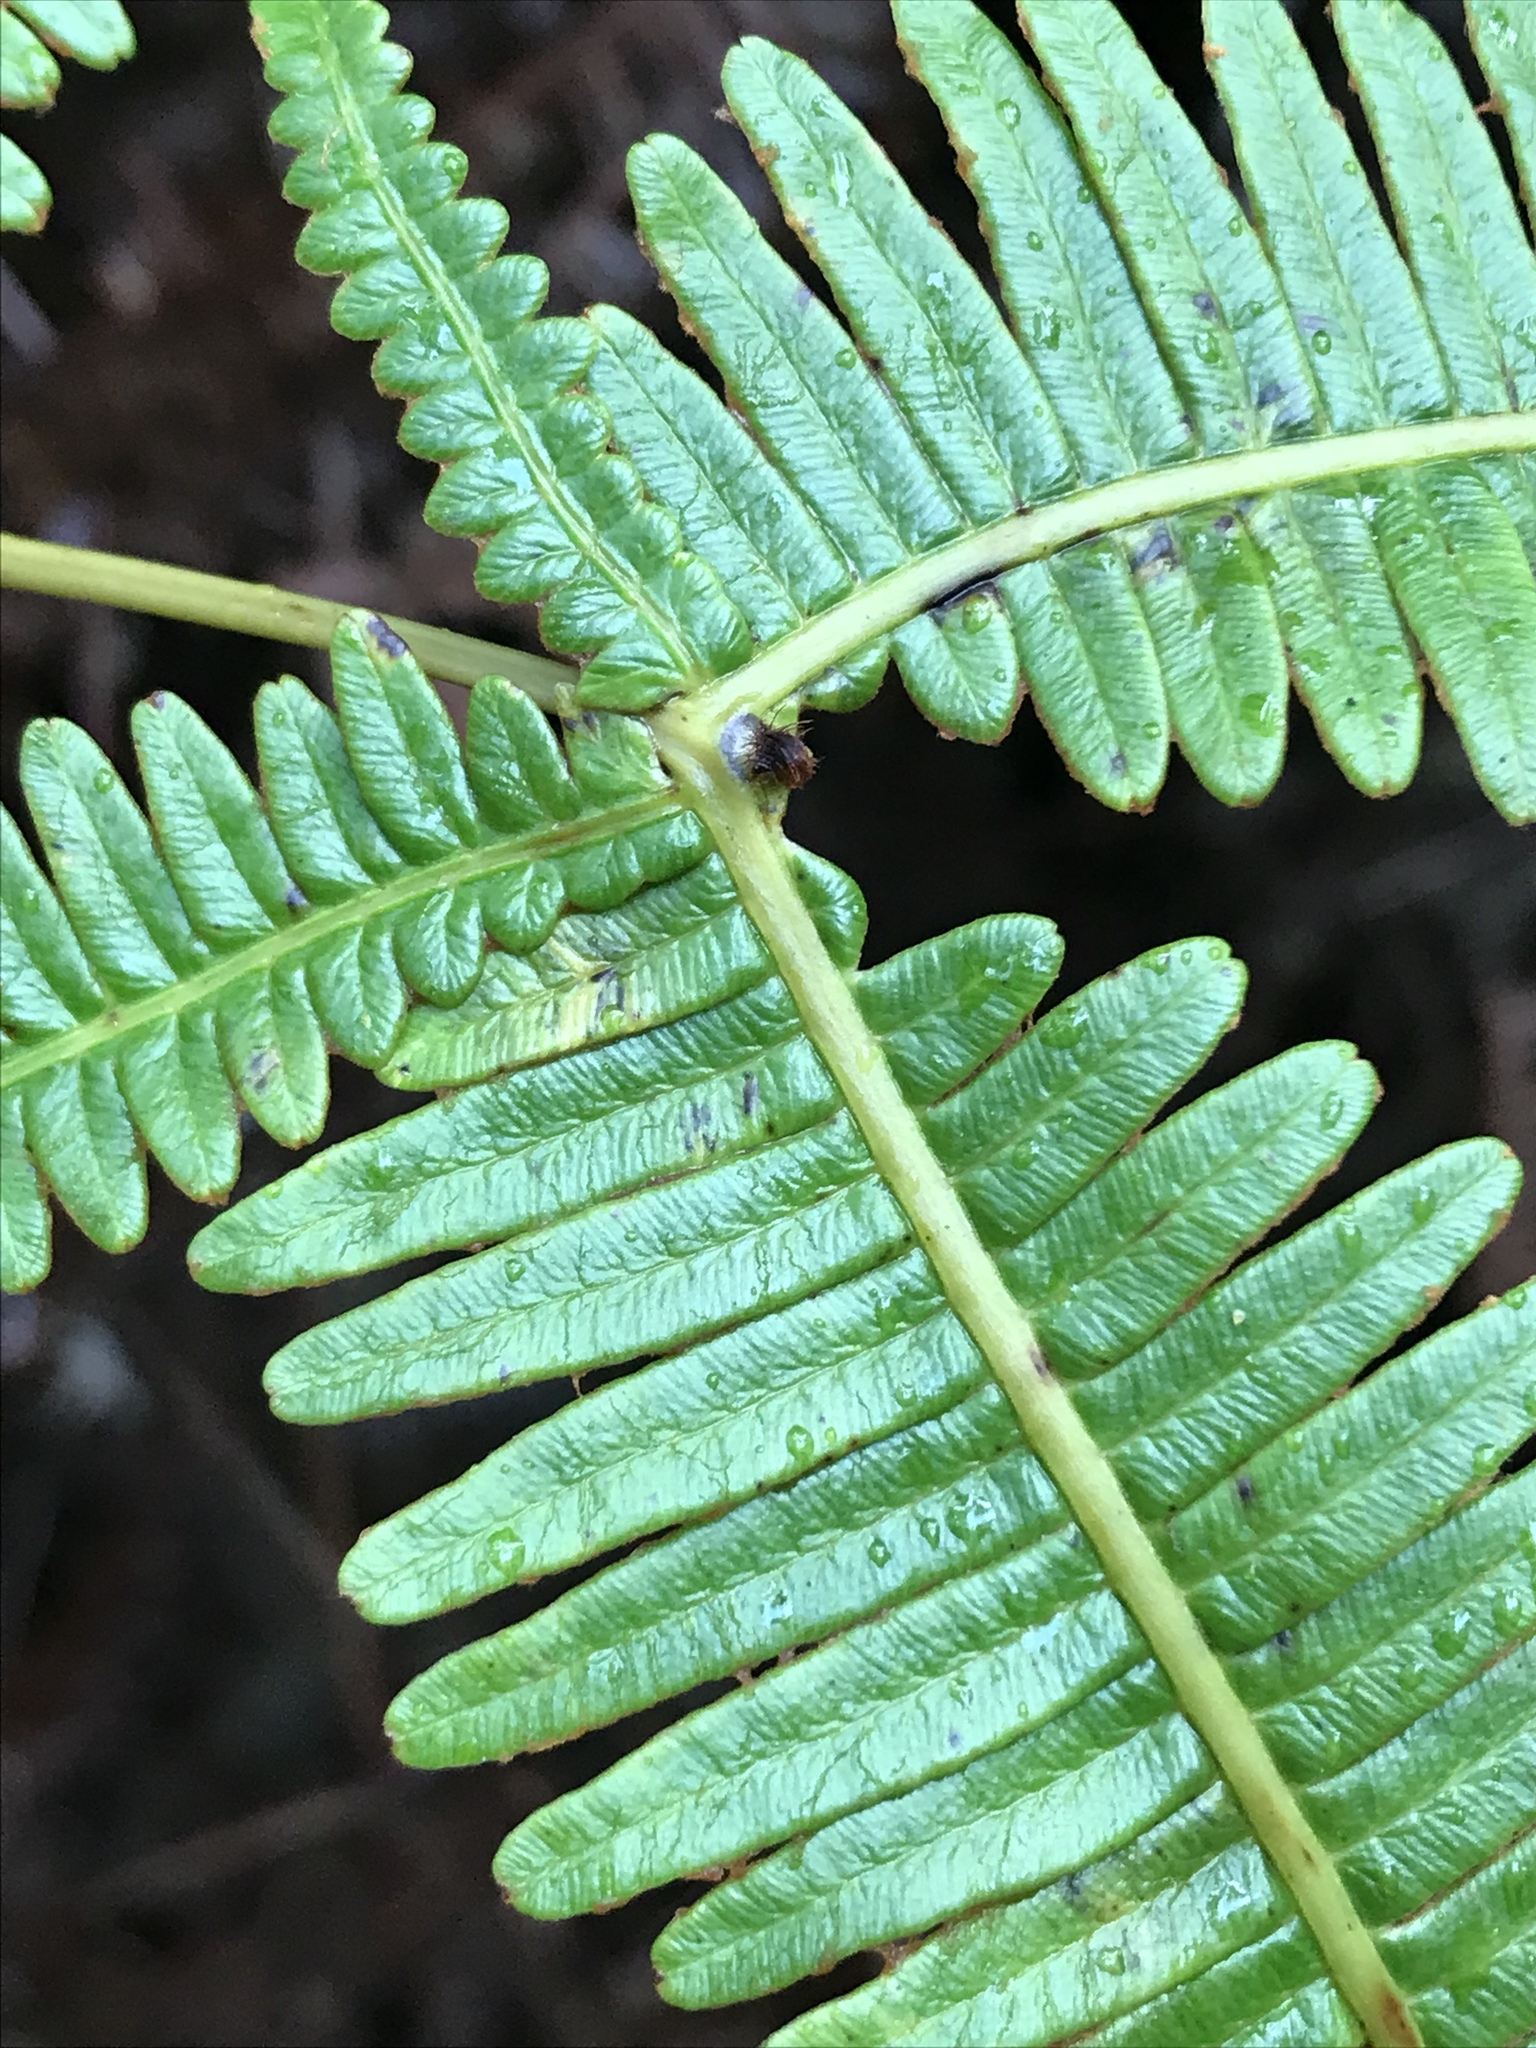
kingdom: Plantae
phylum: Tracheophyta
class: Polypodiopsida
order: Gleicheniales
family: Gleicheniaceae
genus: Dicranopteris
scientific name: Dicranopteris linearis
